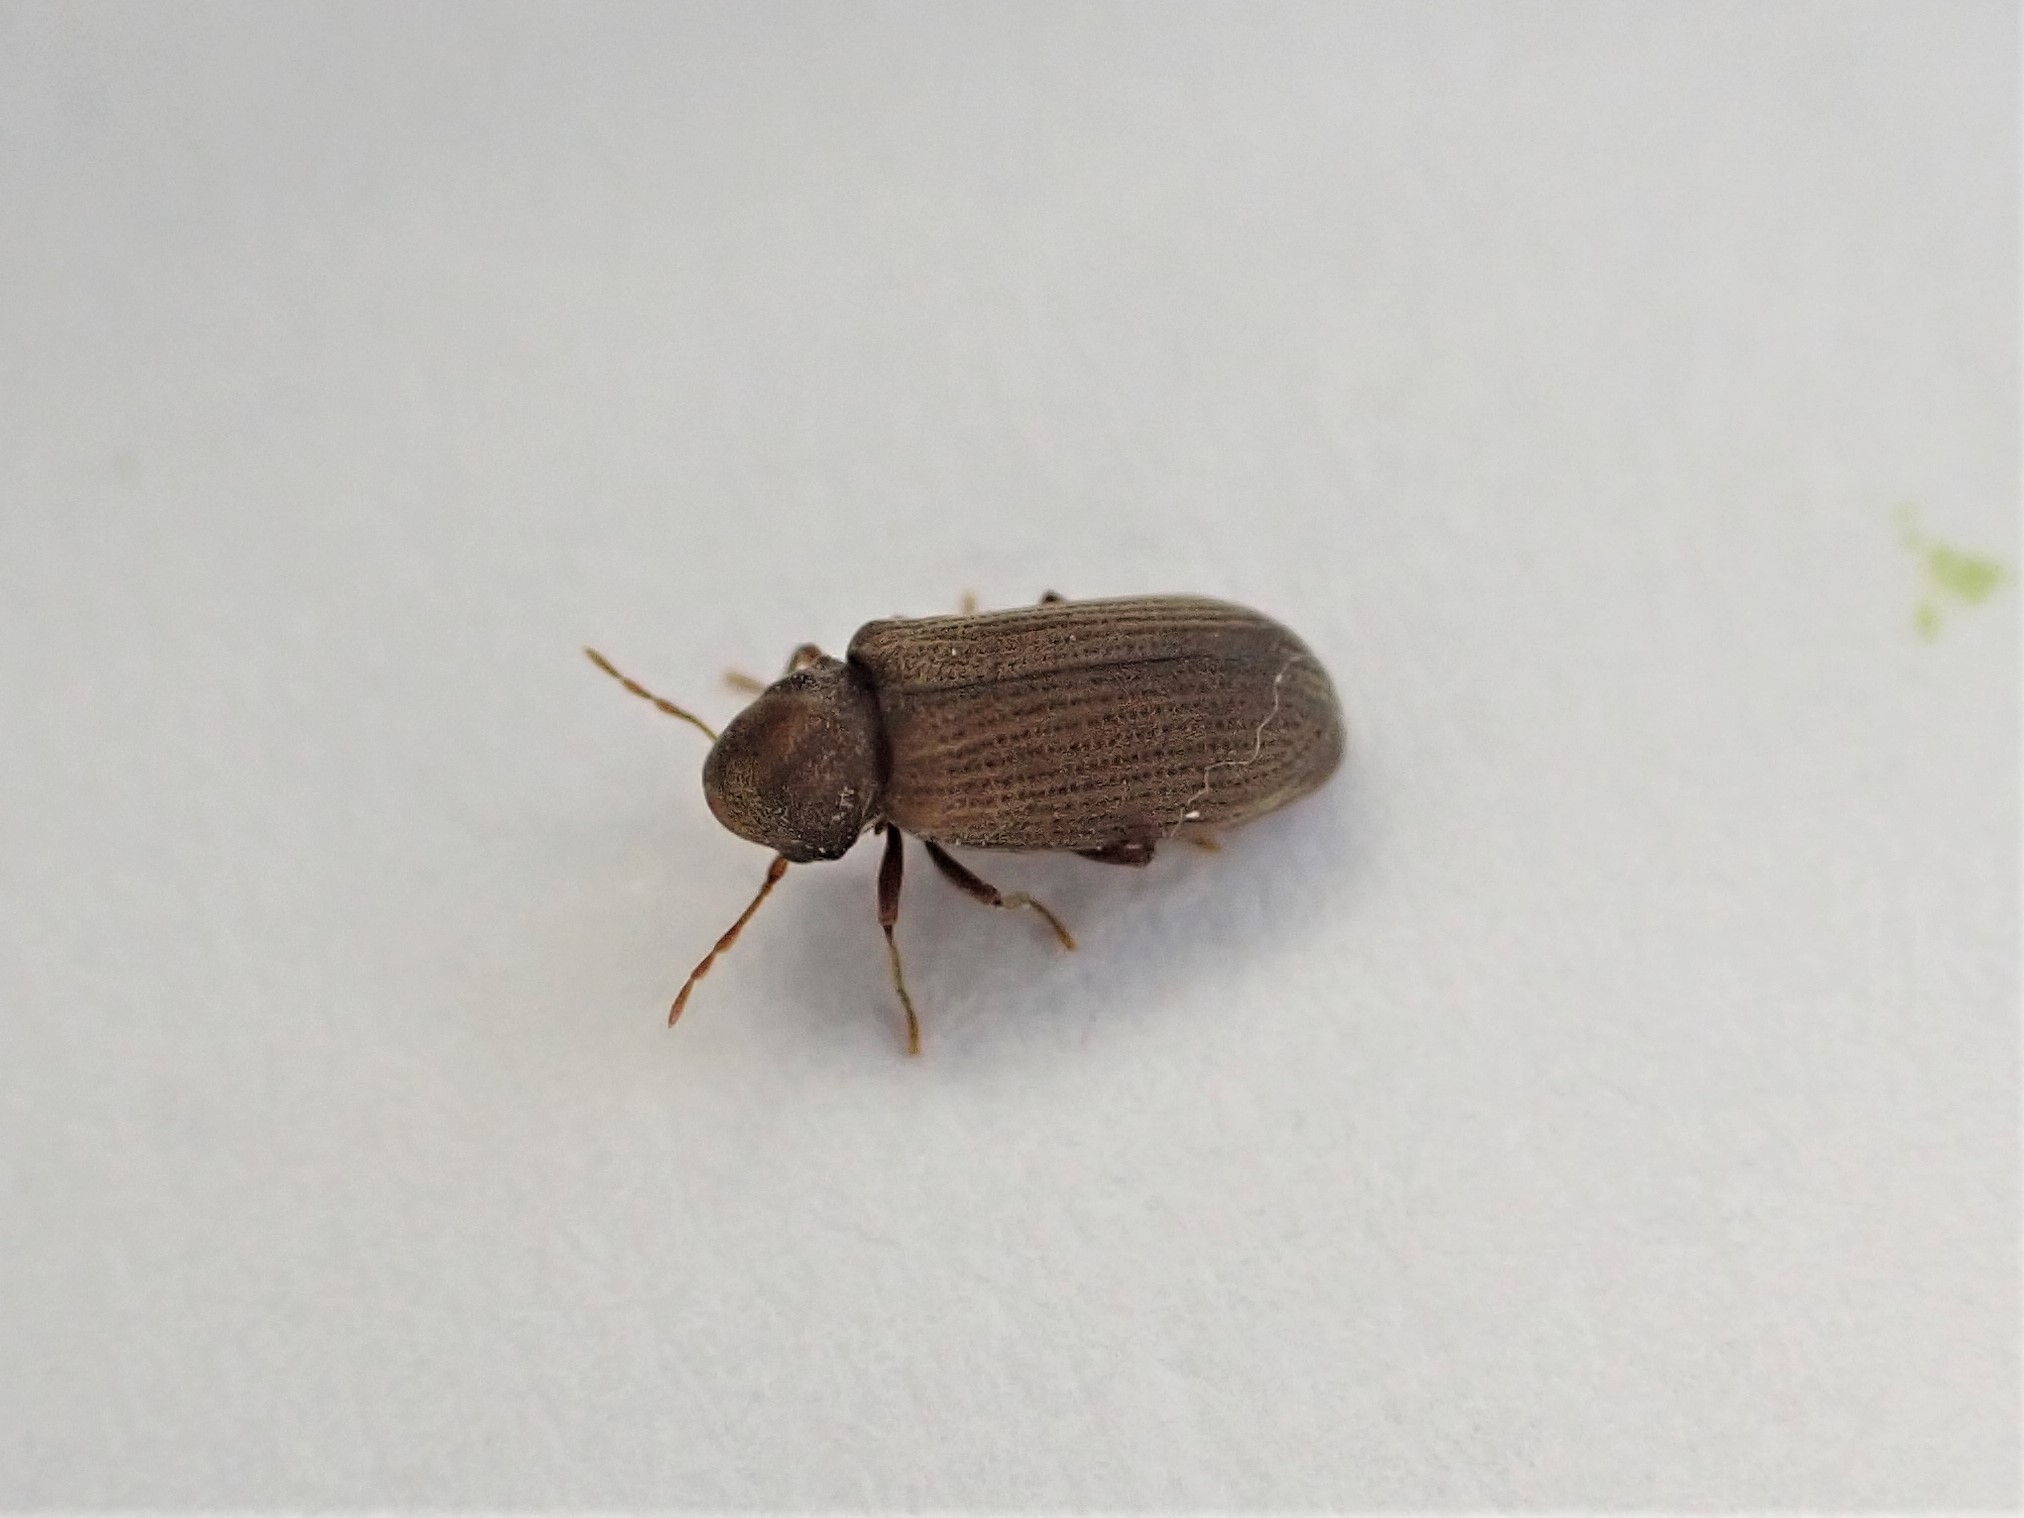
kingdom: Animalia
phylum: Arthropoda
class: Insecta
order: Coleoptera
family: Anobiidae
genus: Anobium
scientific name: Anobium punctatum
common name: Furniture beetle
